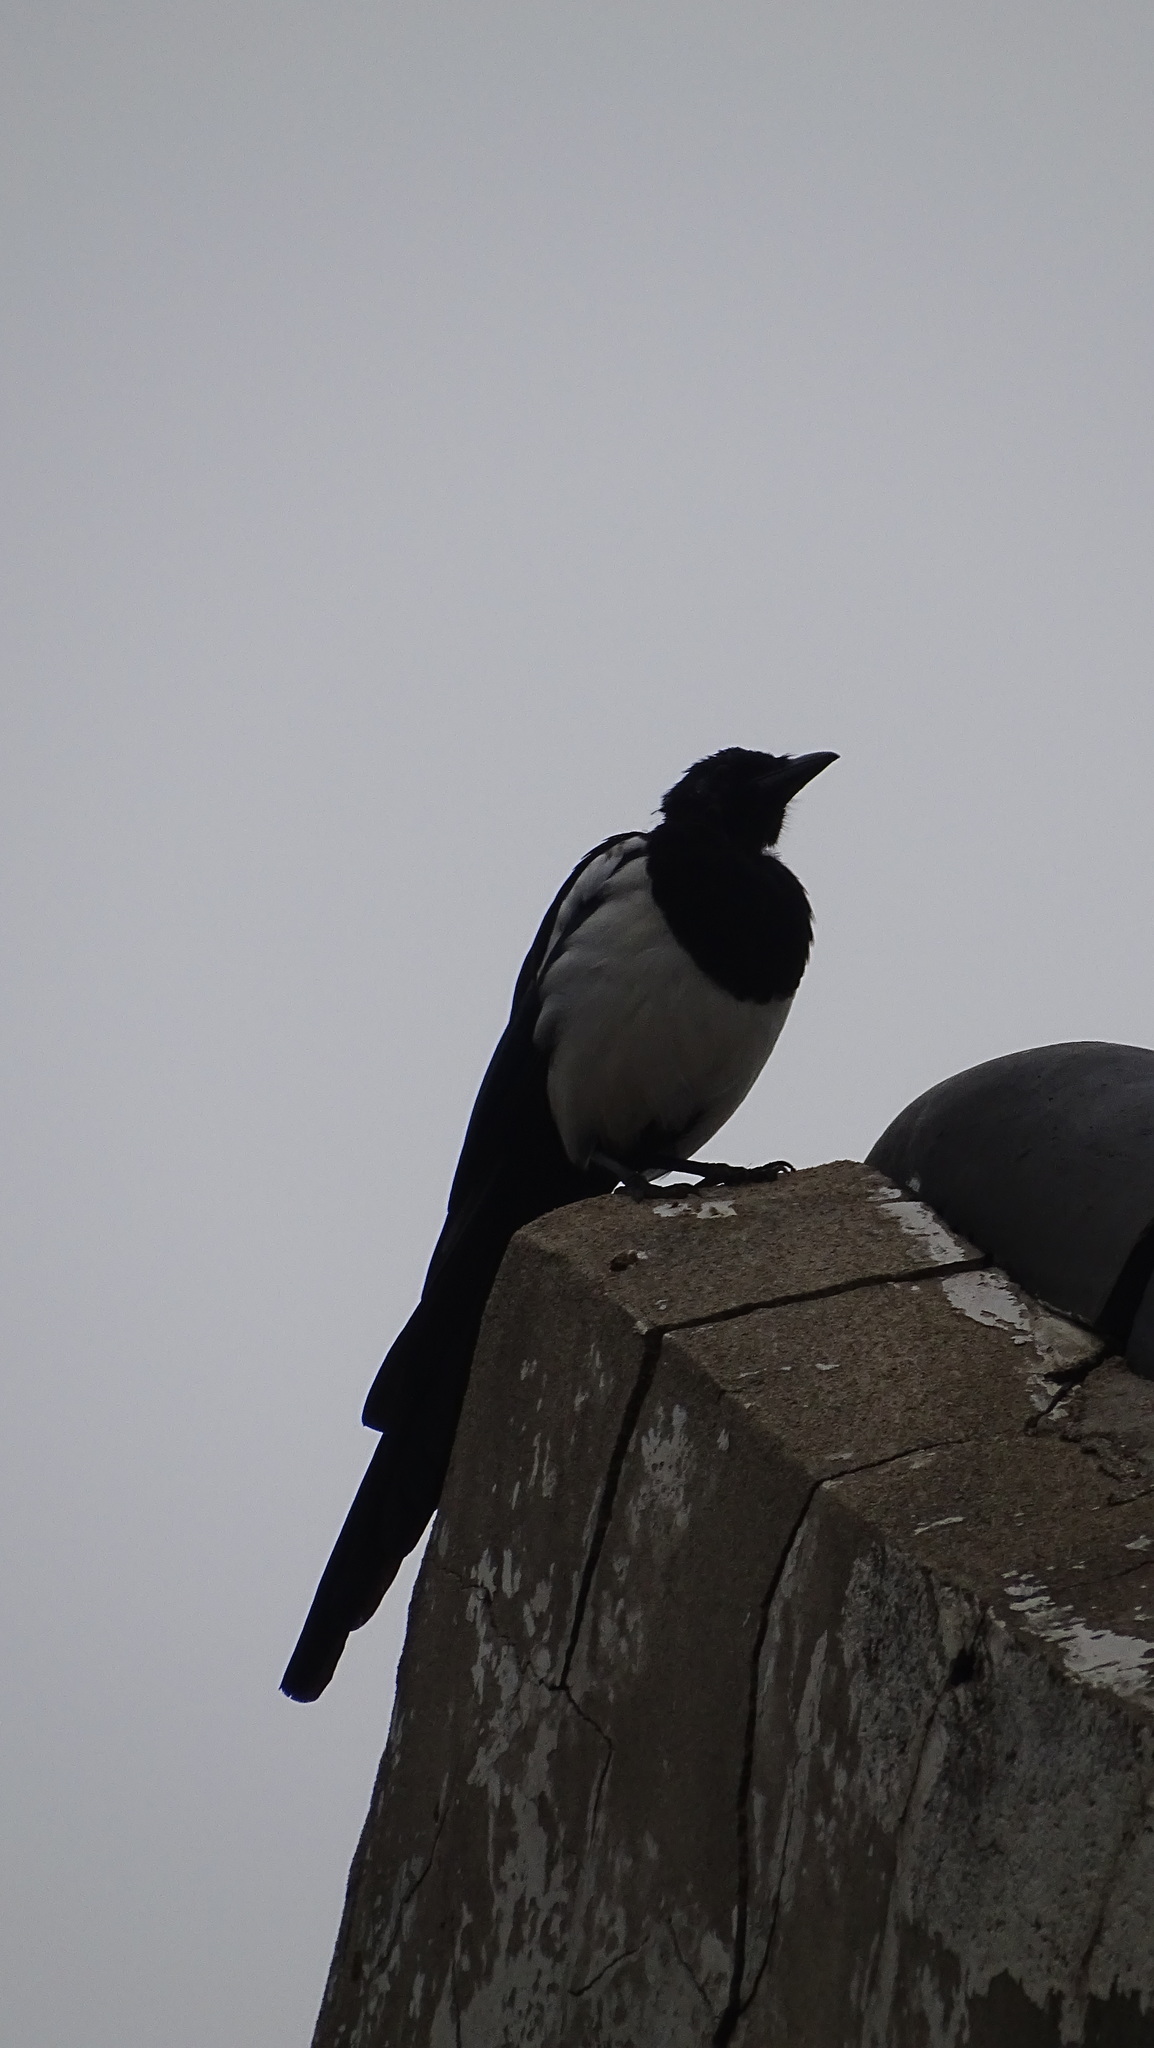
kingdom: Animalia
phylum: Chordata
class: Aves
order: Passeriformes
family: Corvidae
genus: Pica
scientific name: Pica serica
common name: Oriental magpie
